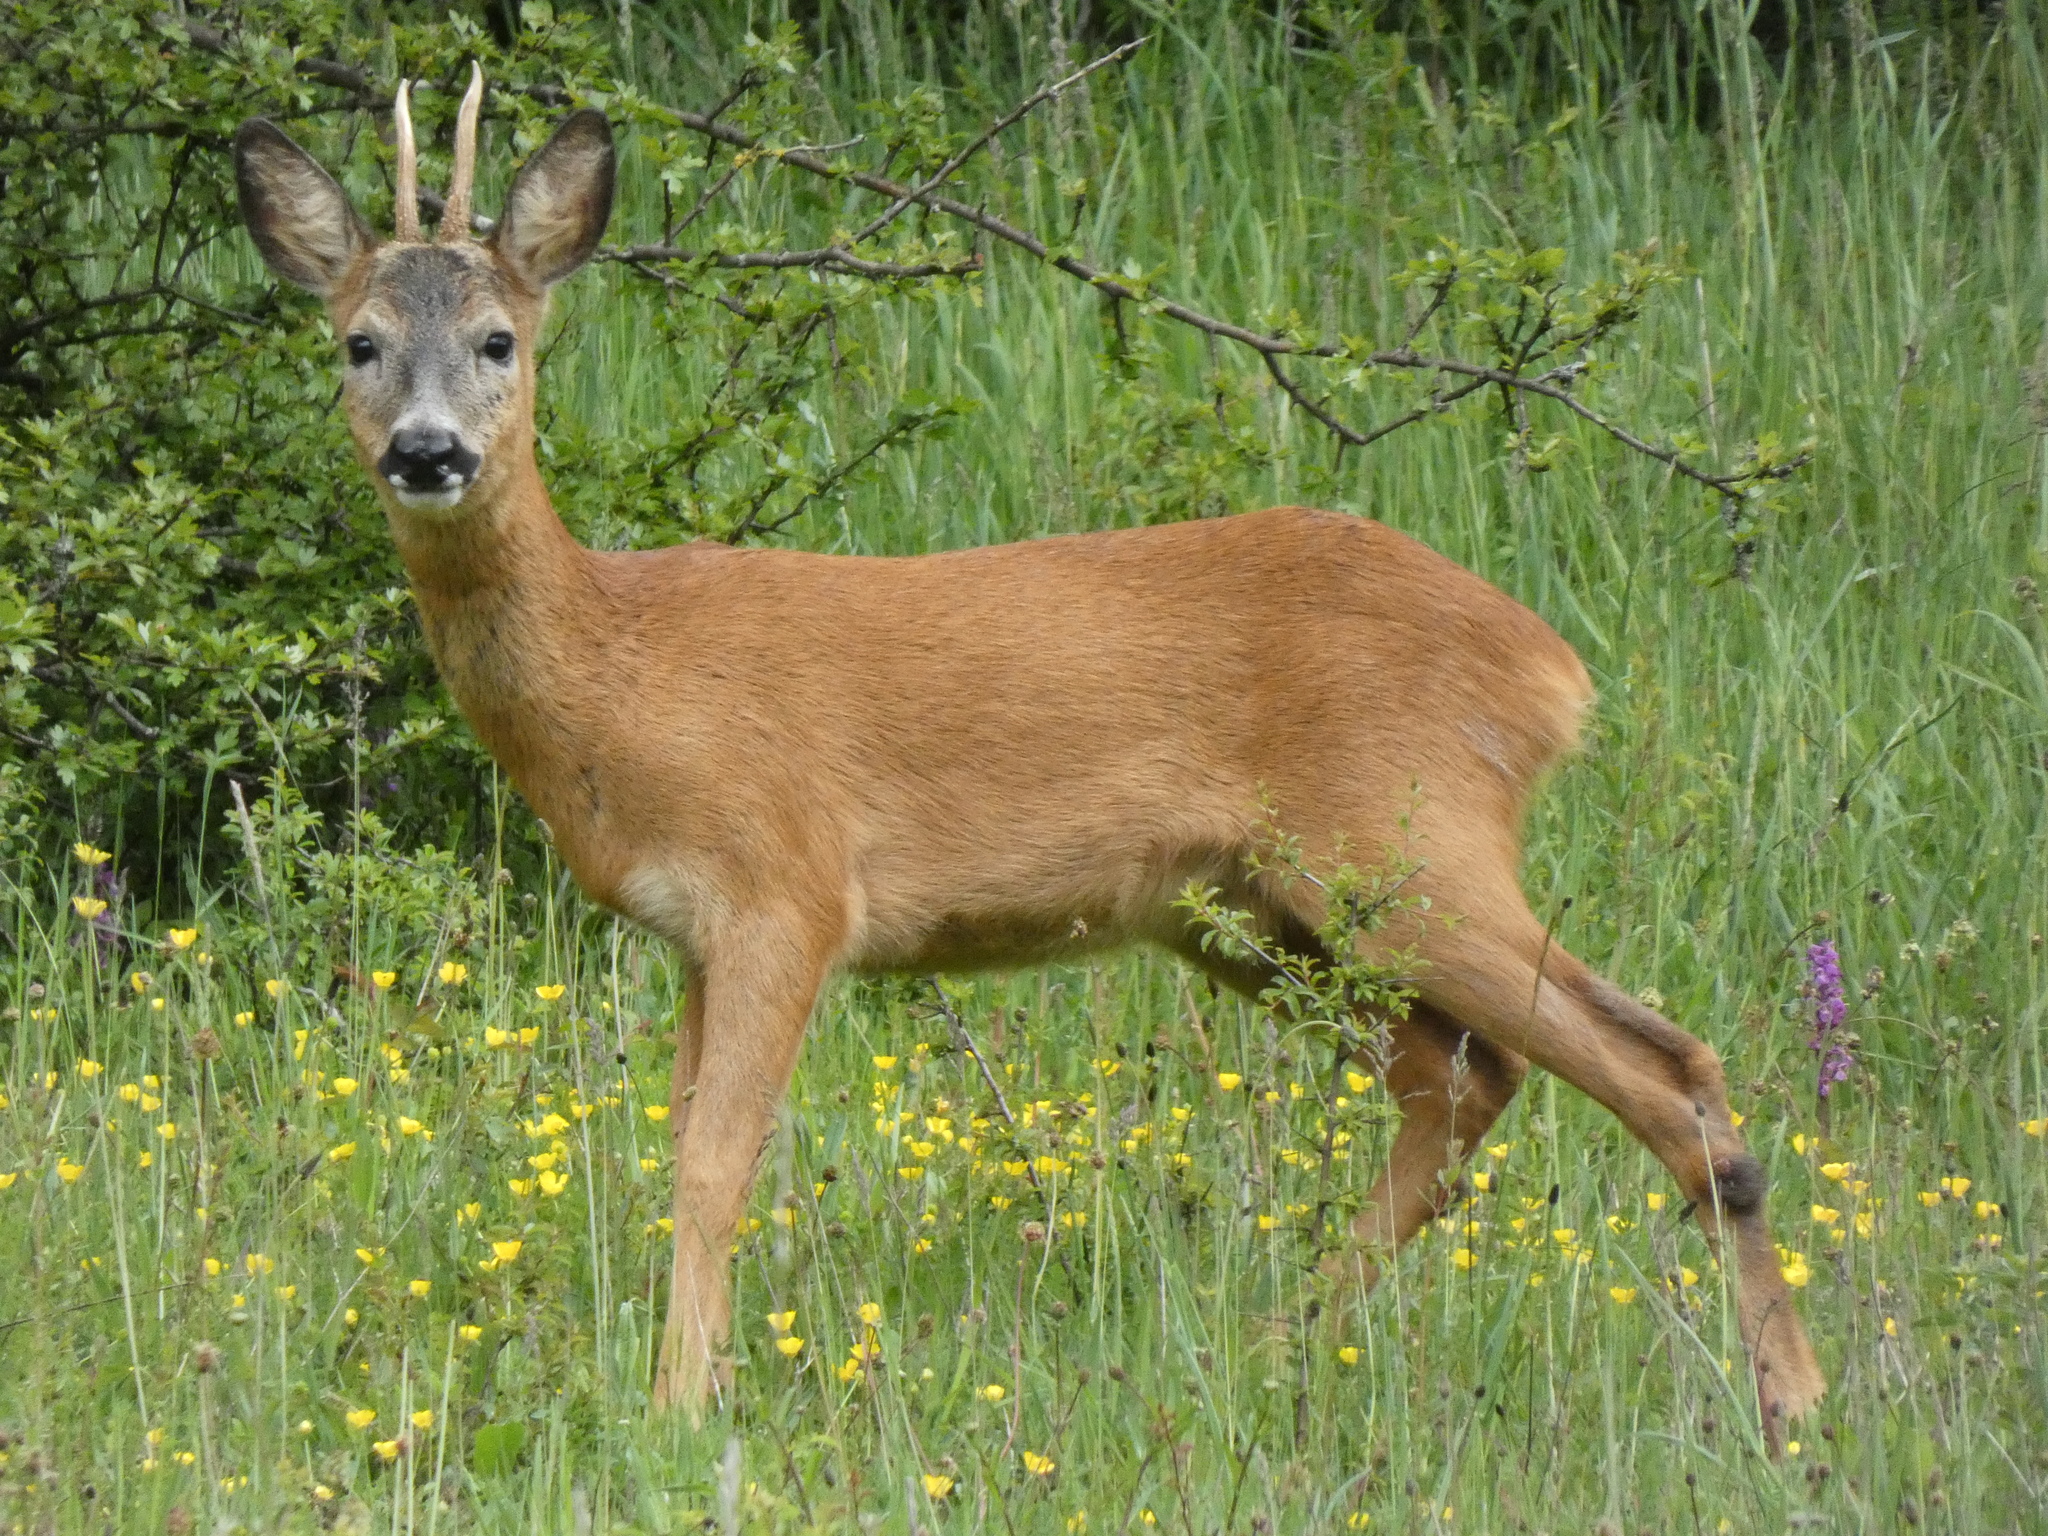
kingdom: Animalia
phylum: Chordata
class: Mammalia
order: Artiodactyla
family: Cervidae
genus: Capreolus
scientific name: Capreolus capreolus
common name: Western roe deer
